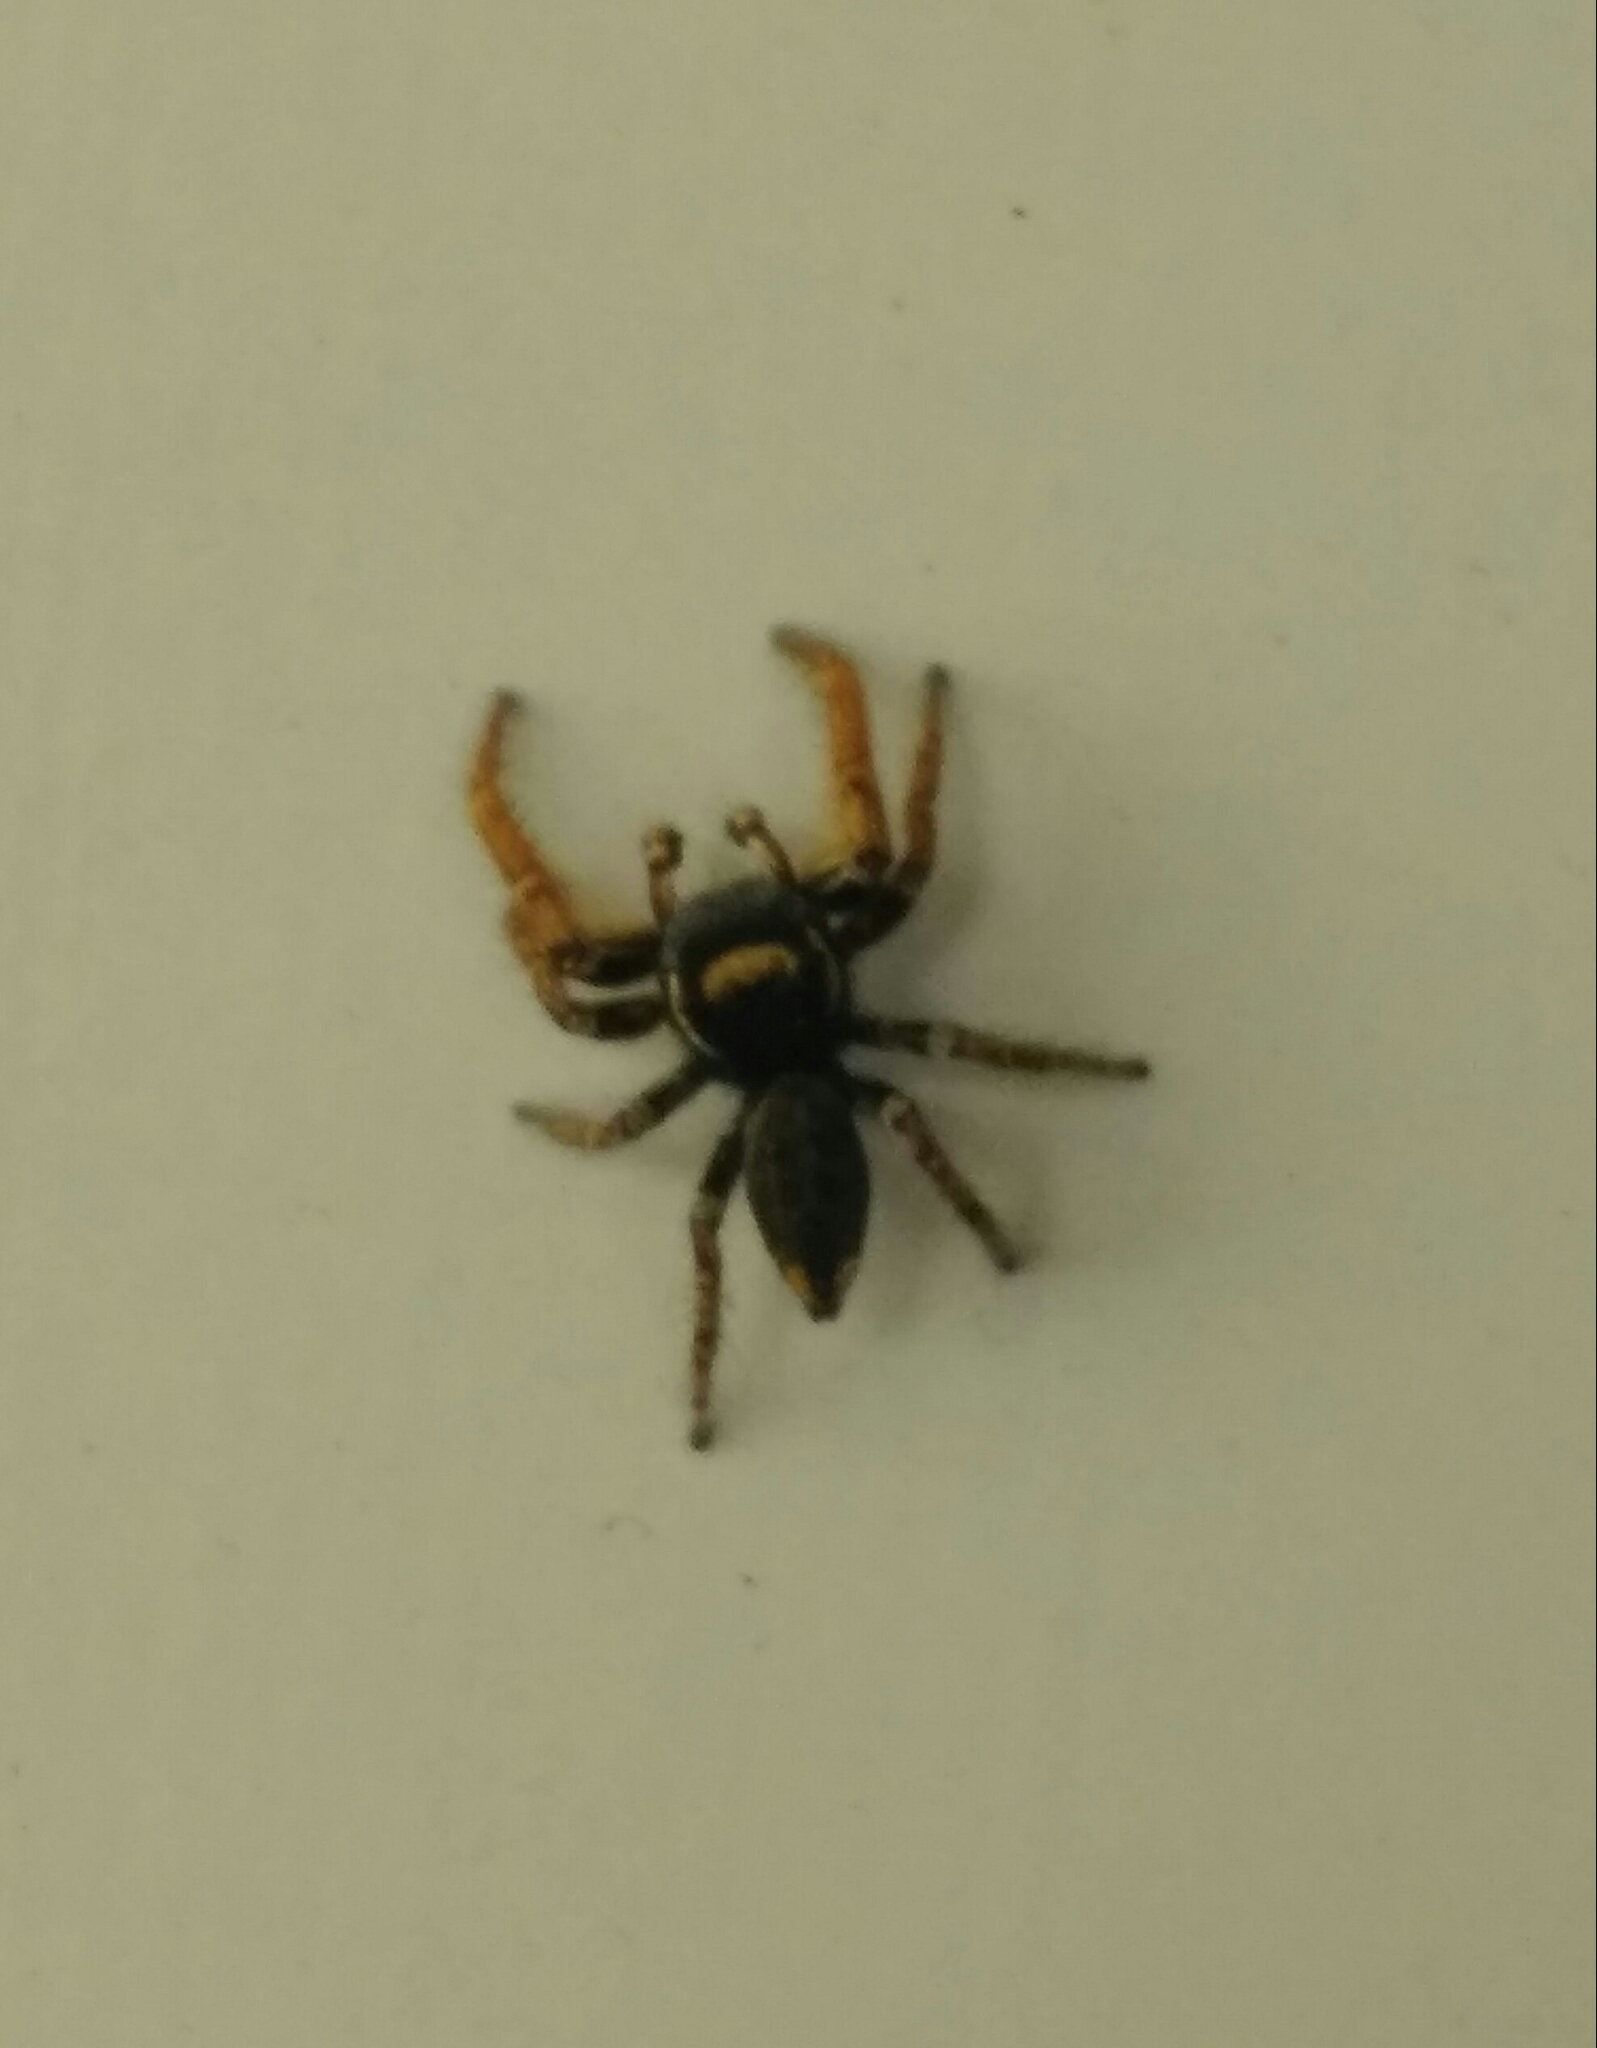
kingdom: Animalia
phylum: Arthropoda
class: Arachnida
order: Araneae
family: Salticidae
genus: Phidippus
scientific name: Phidippus arizonensis
